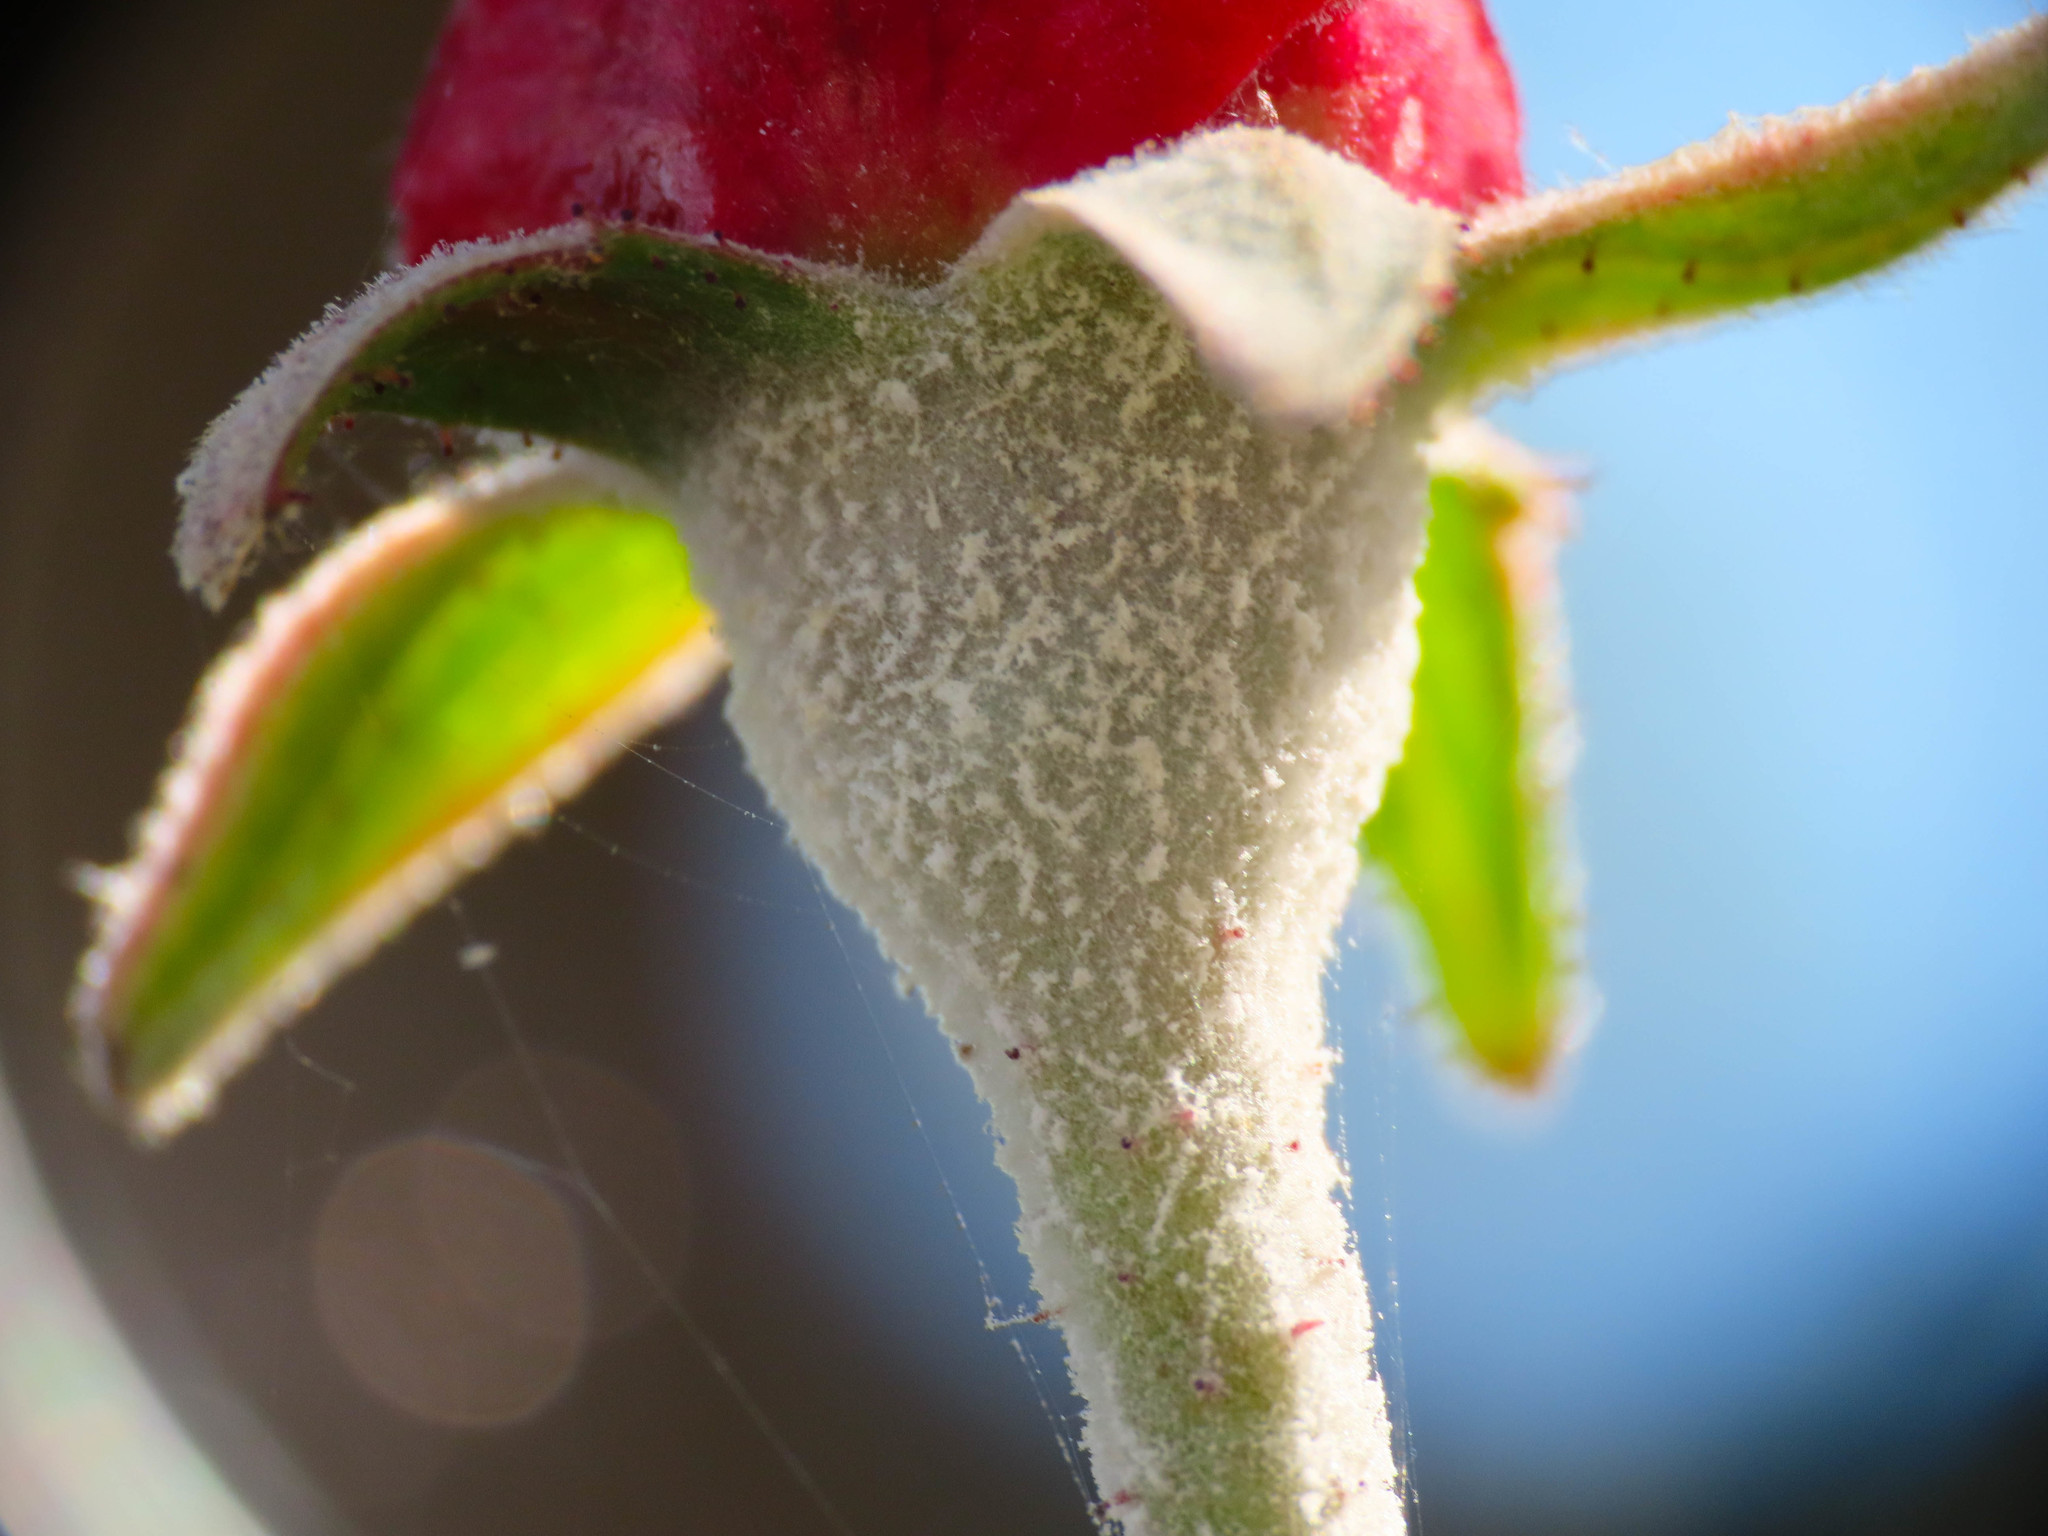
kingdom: Fungi
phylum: Ascomycota
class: Leotiomycetes
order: Helotiales
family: Erysiphaceae
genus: Podosphaera
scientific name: Podosphaera pannosa
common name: Rose mildew
